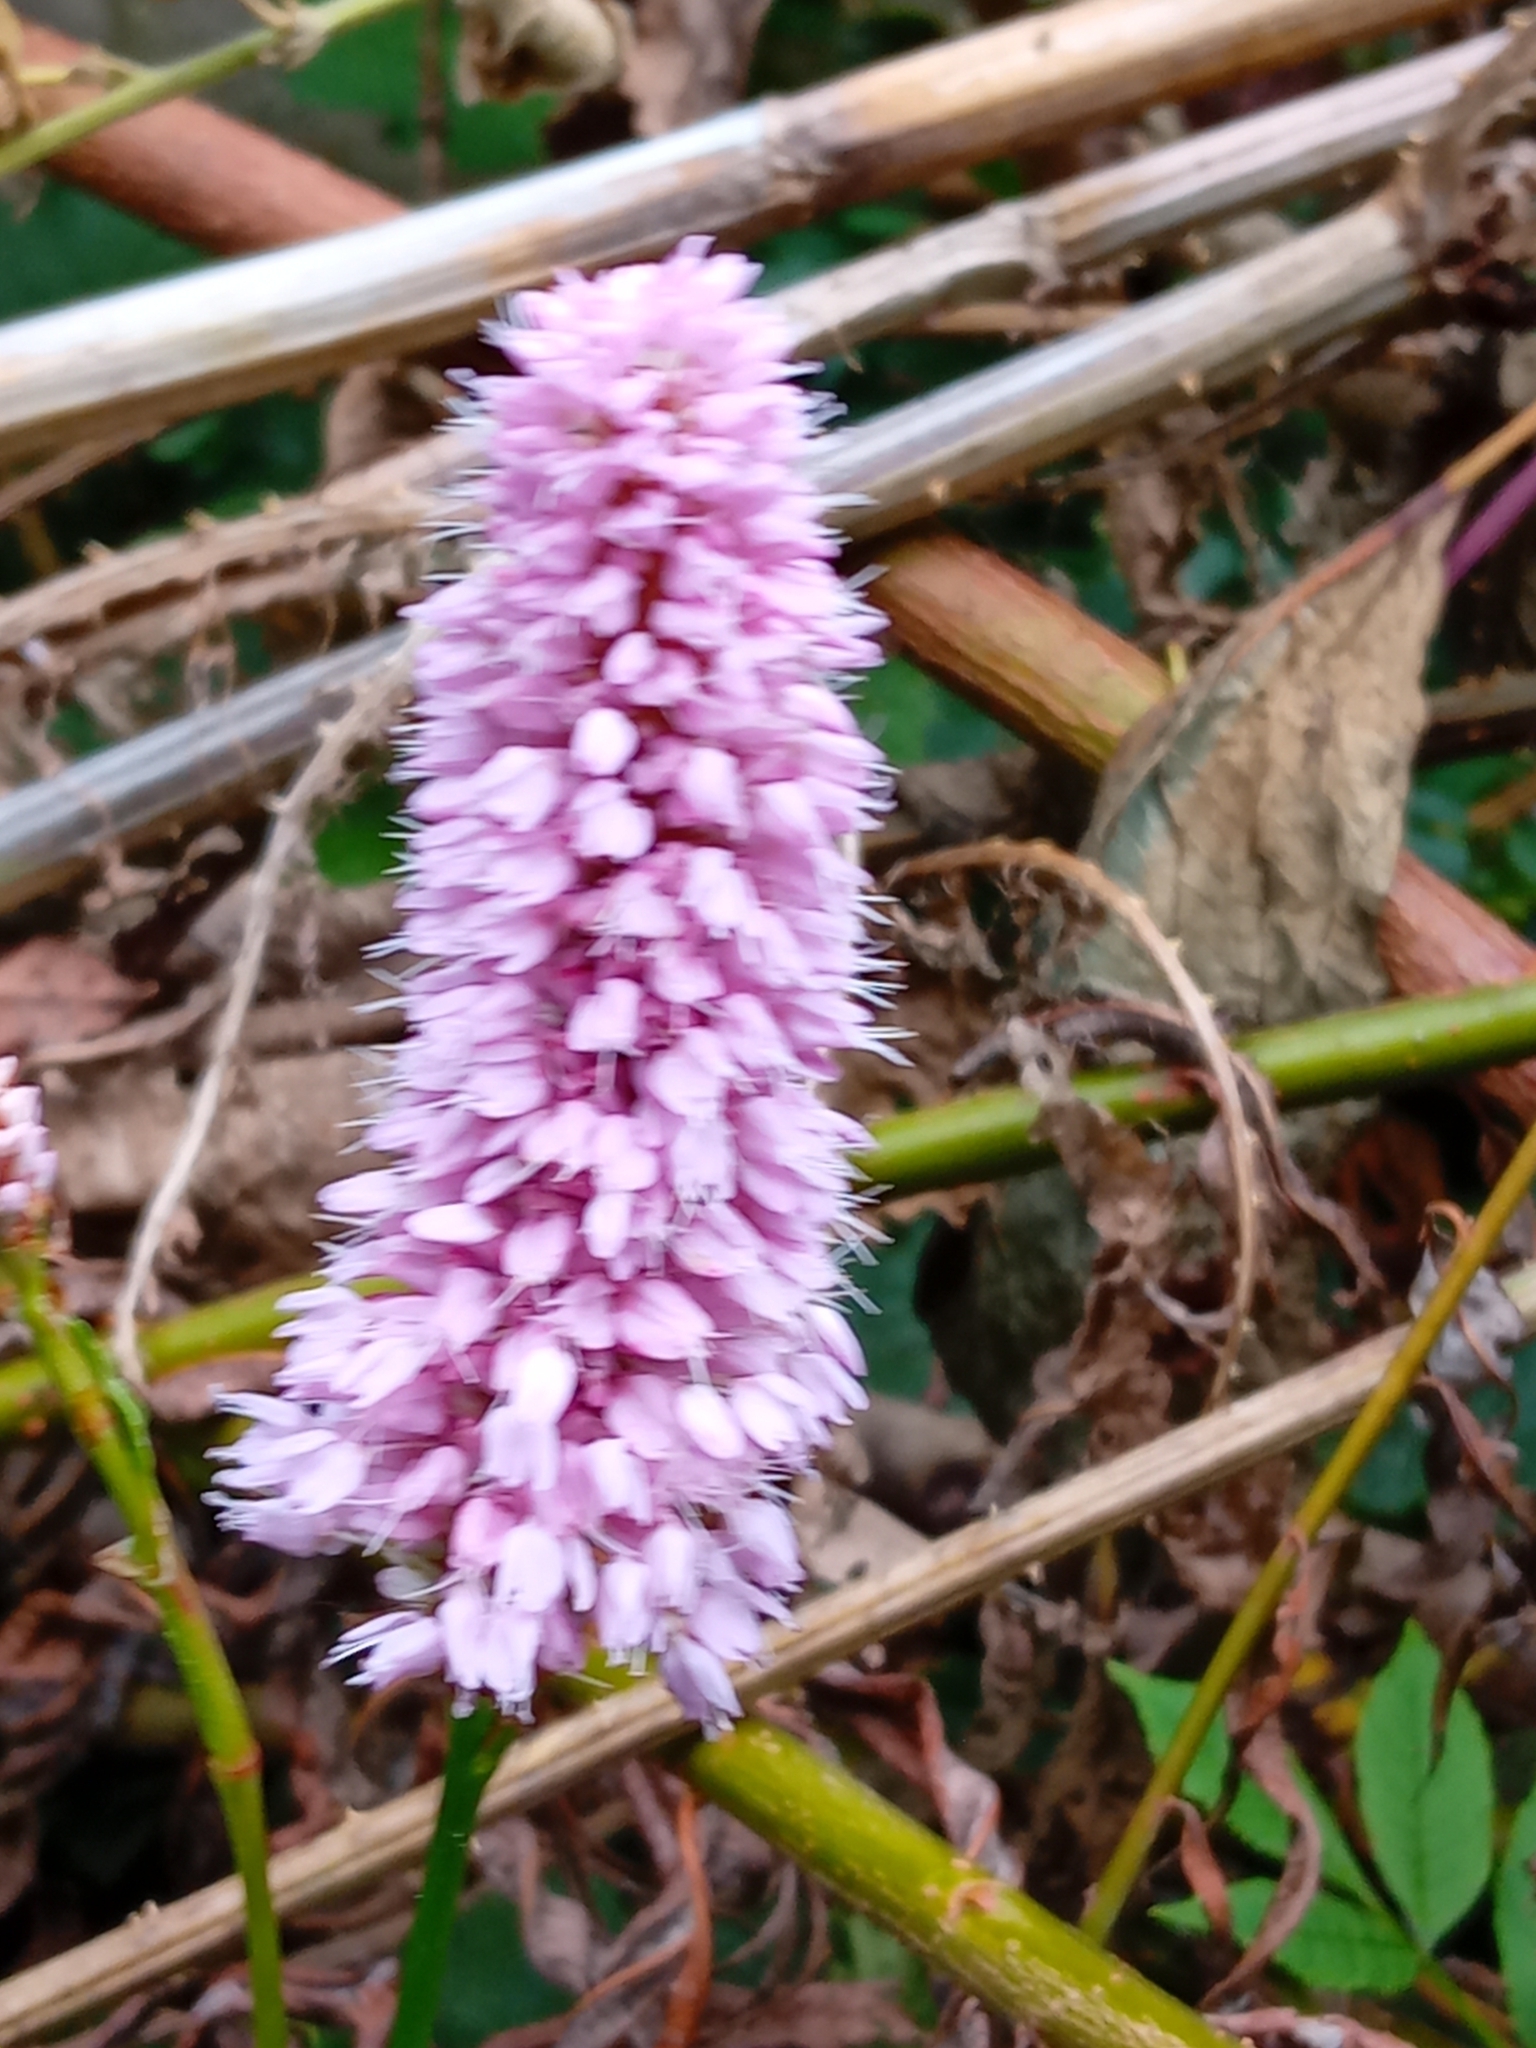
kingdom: Plantae
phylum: Tracheophyta
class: Magnoliopsida
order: Caryophyllales
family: Polygonaceae
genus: Bistorta
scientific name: Bistorta officinalis
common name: Common bistort
